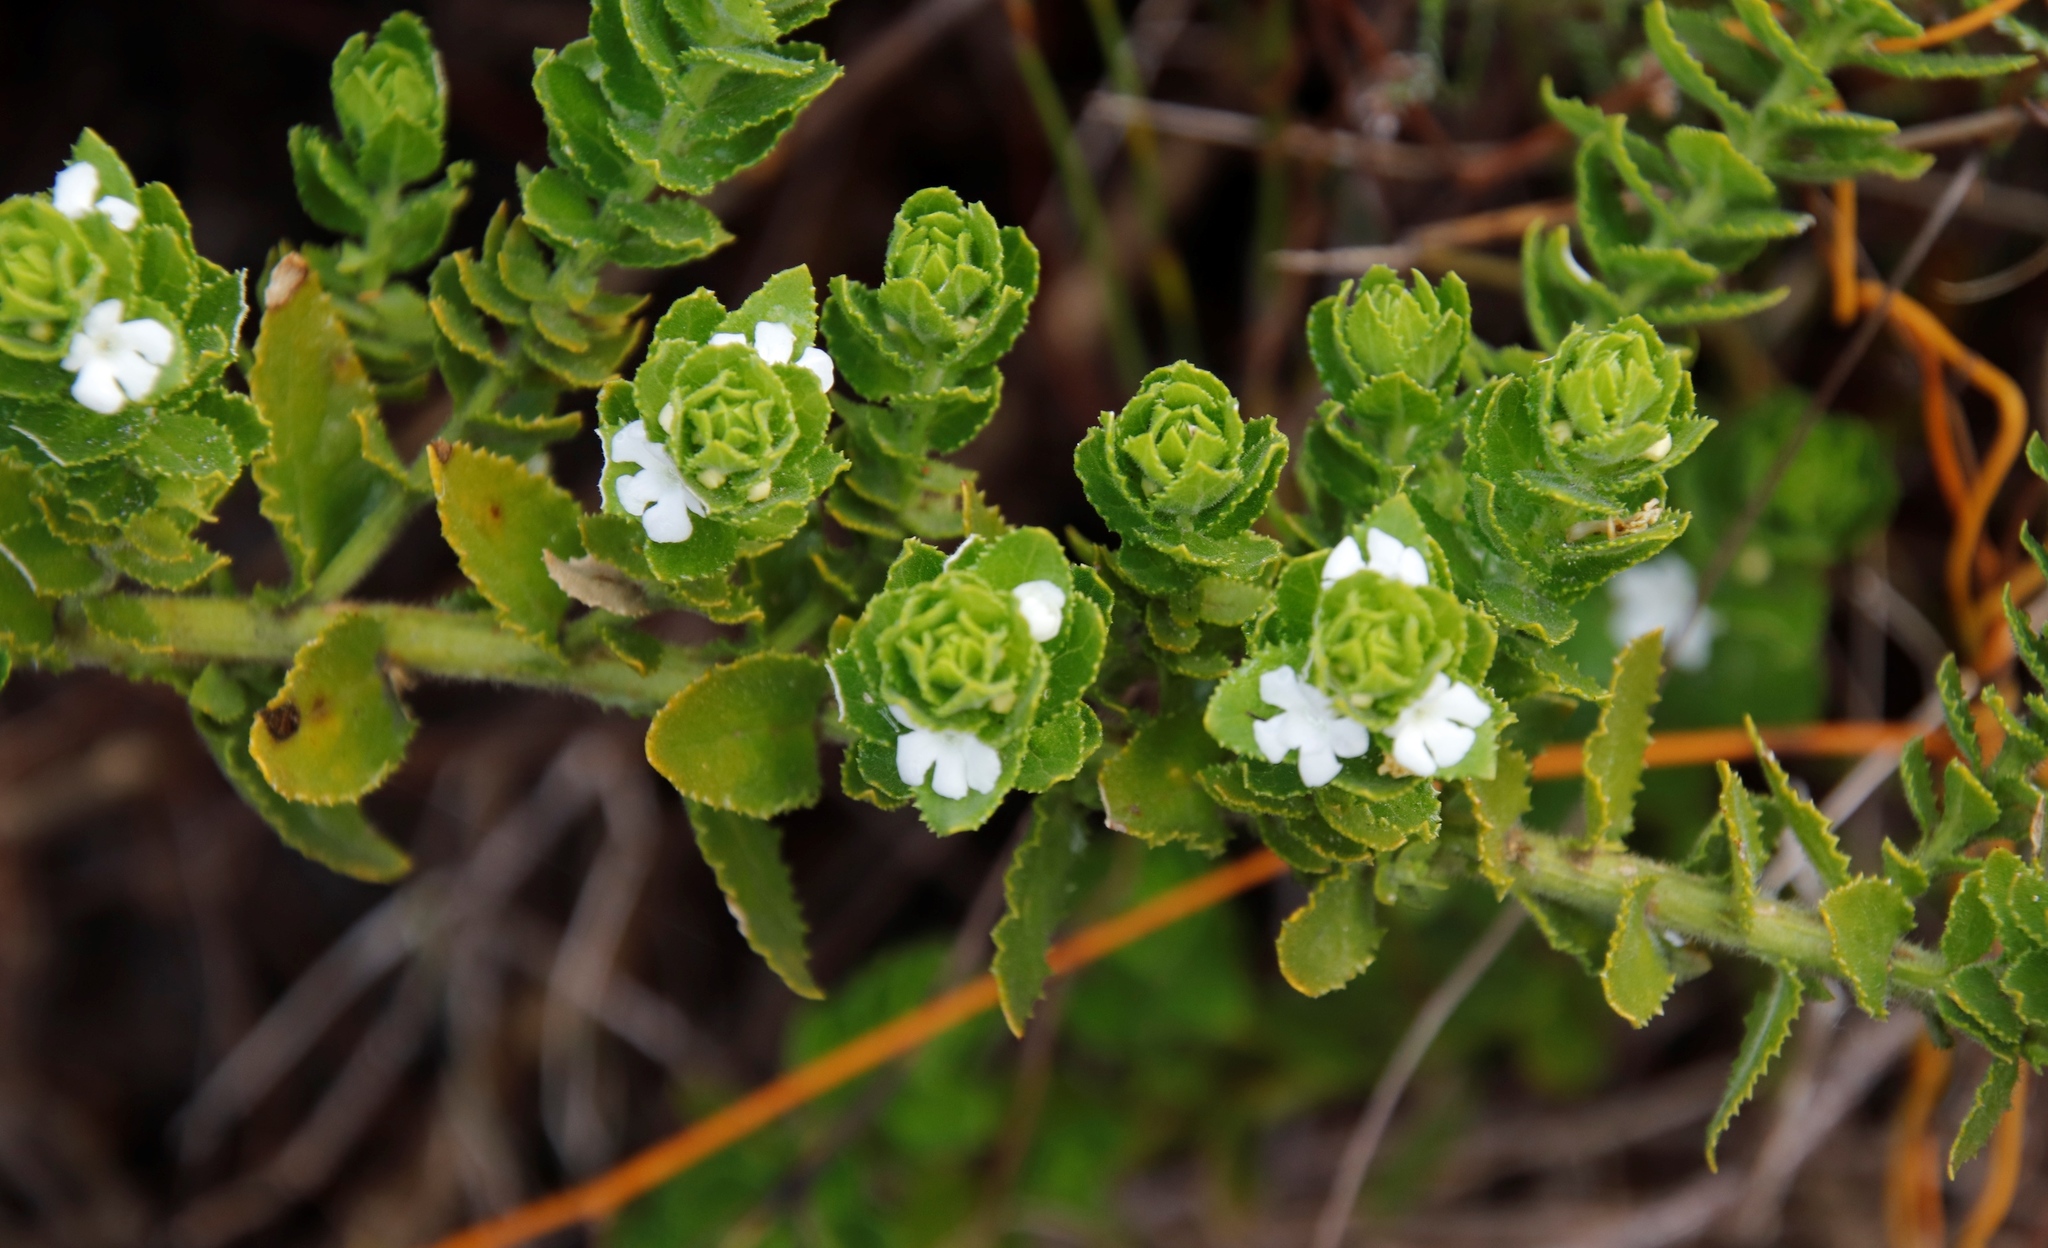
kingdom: Plantae
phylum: Tracheophyta
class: Magnoliopsida
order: Lamiales
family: Scrophulariaceae
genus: Oftia
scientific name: Oftia africana
